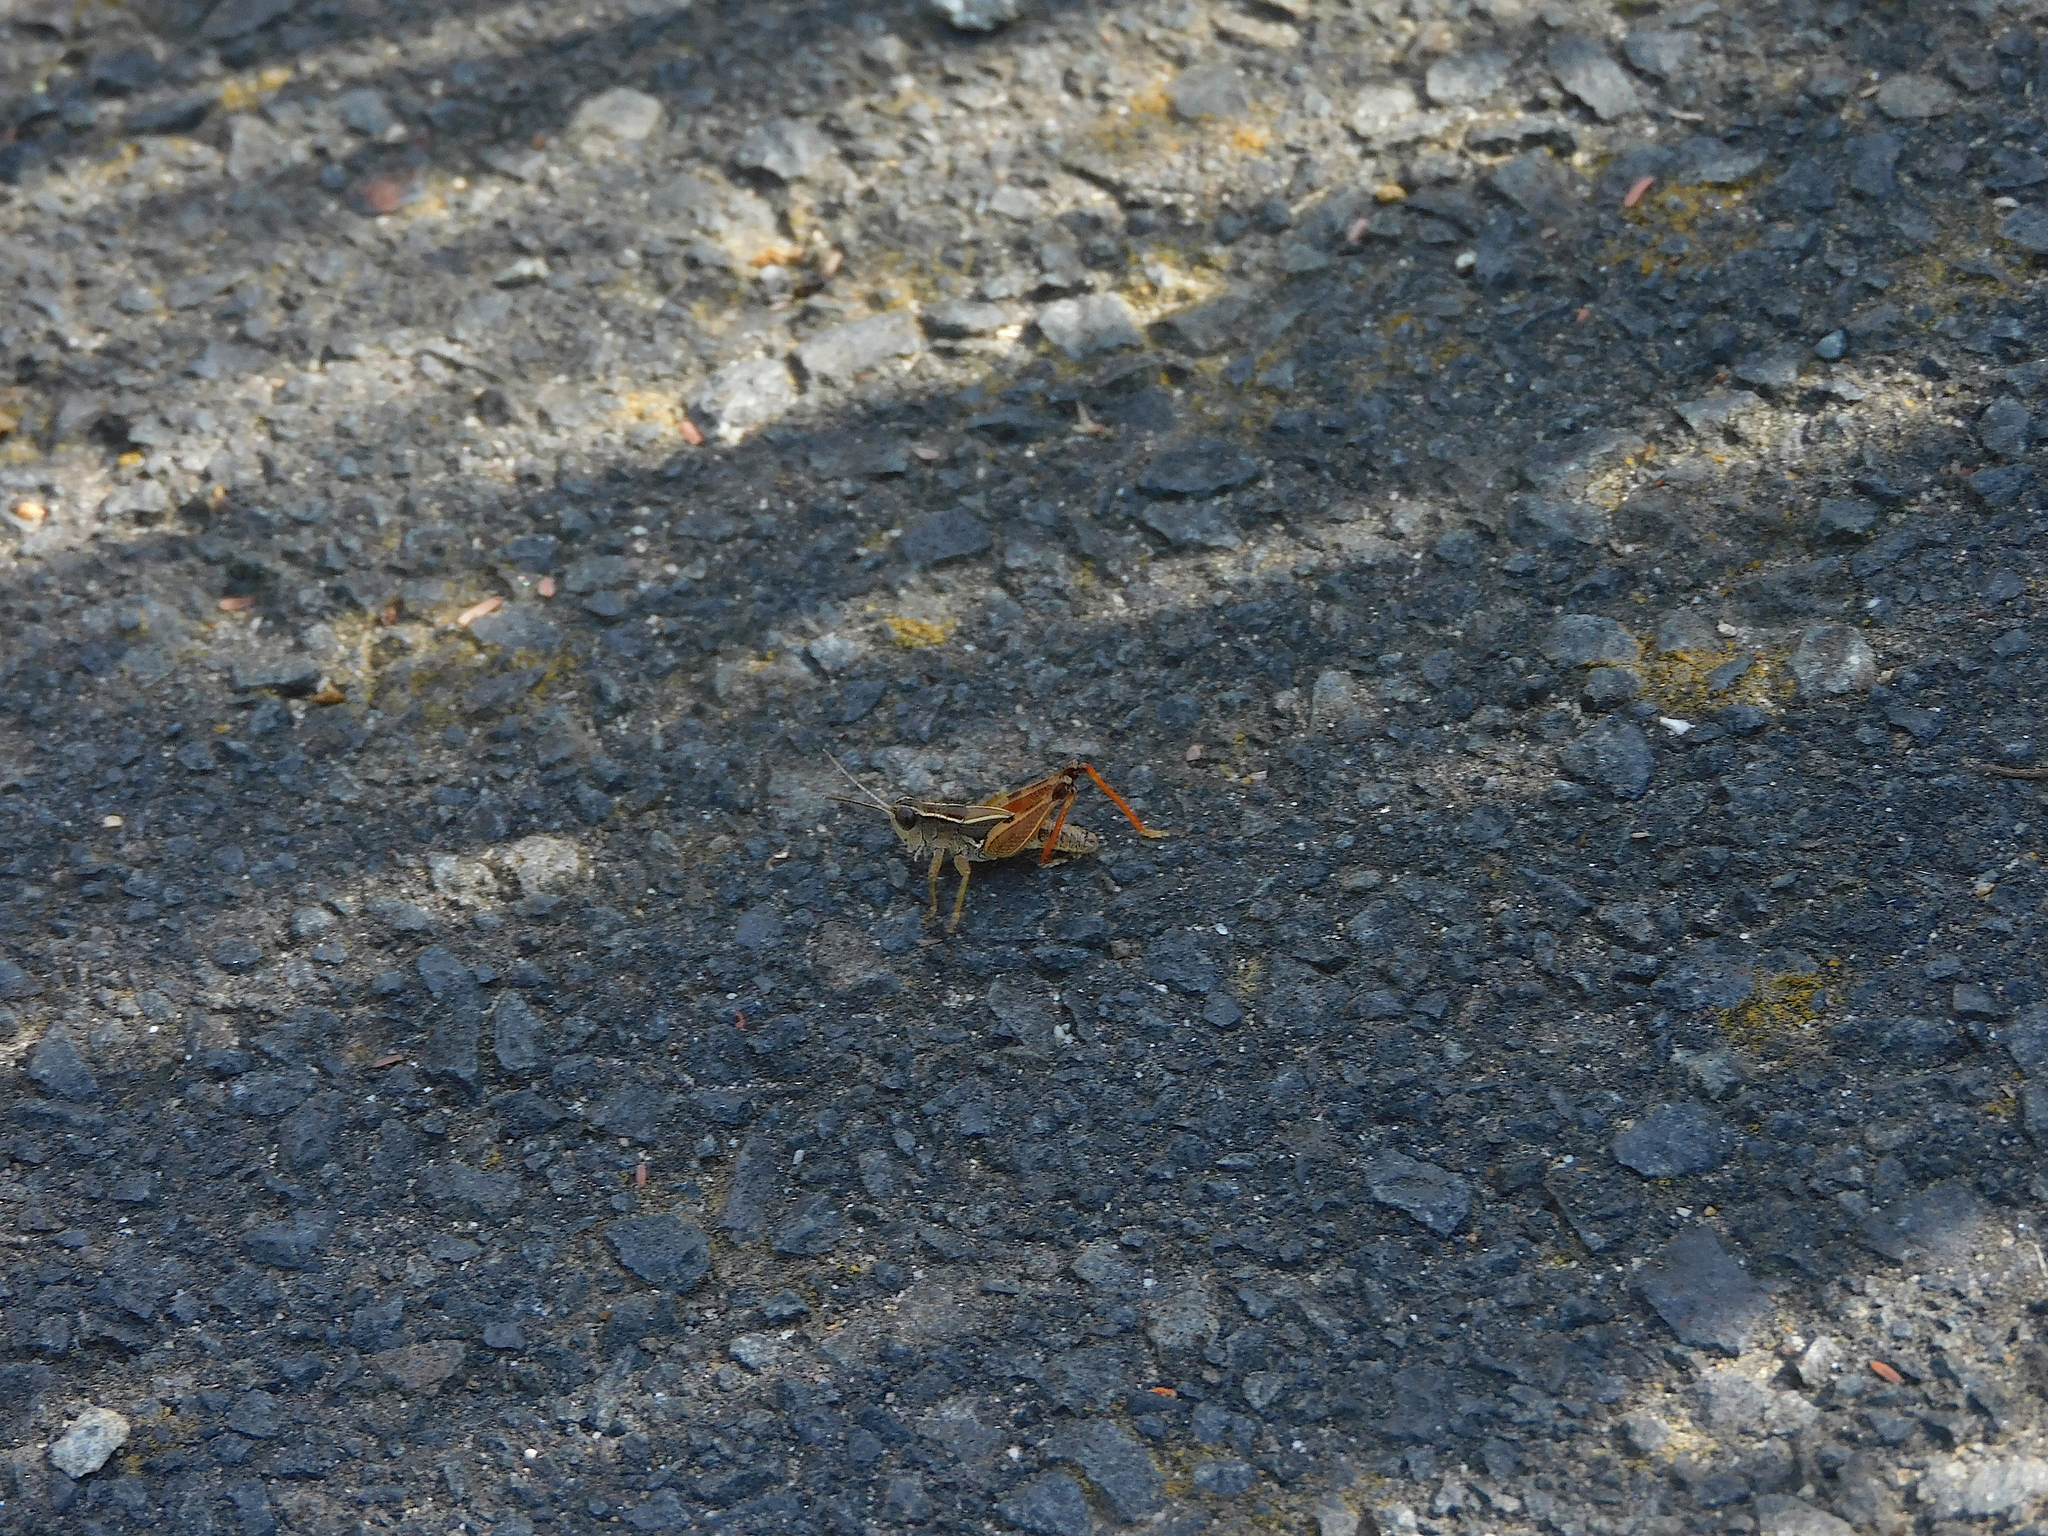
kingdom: Animalia
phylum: Arthropoda
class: Insecta
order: Orthoptera
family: Acrididae
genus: Phaulacridium
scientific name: Phaulacridium vittatum
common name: Wingless grasshopper
